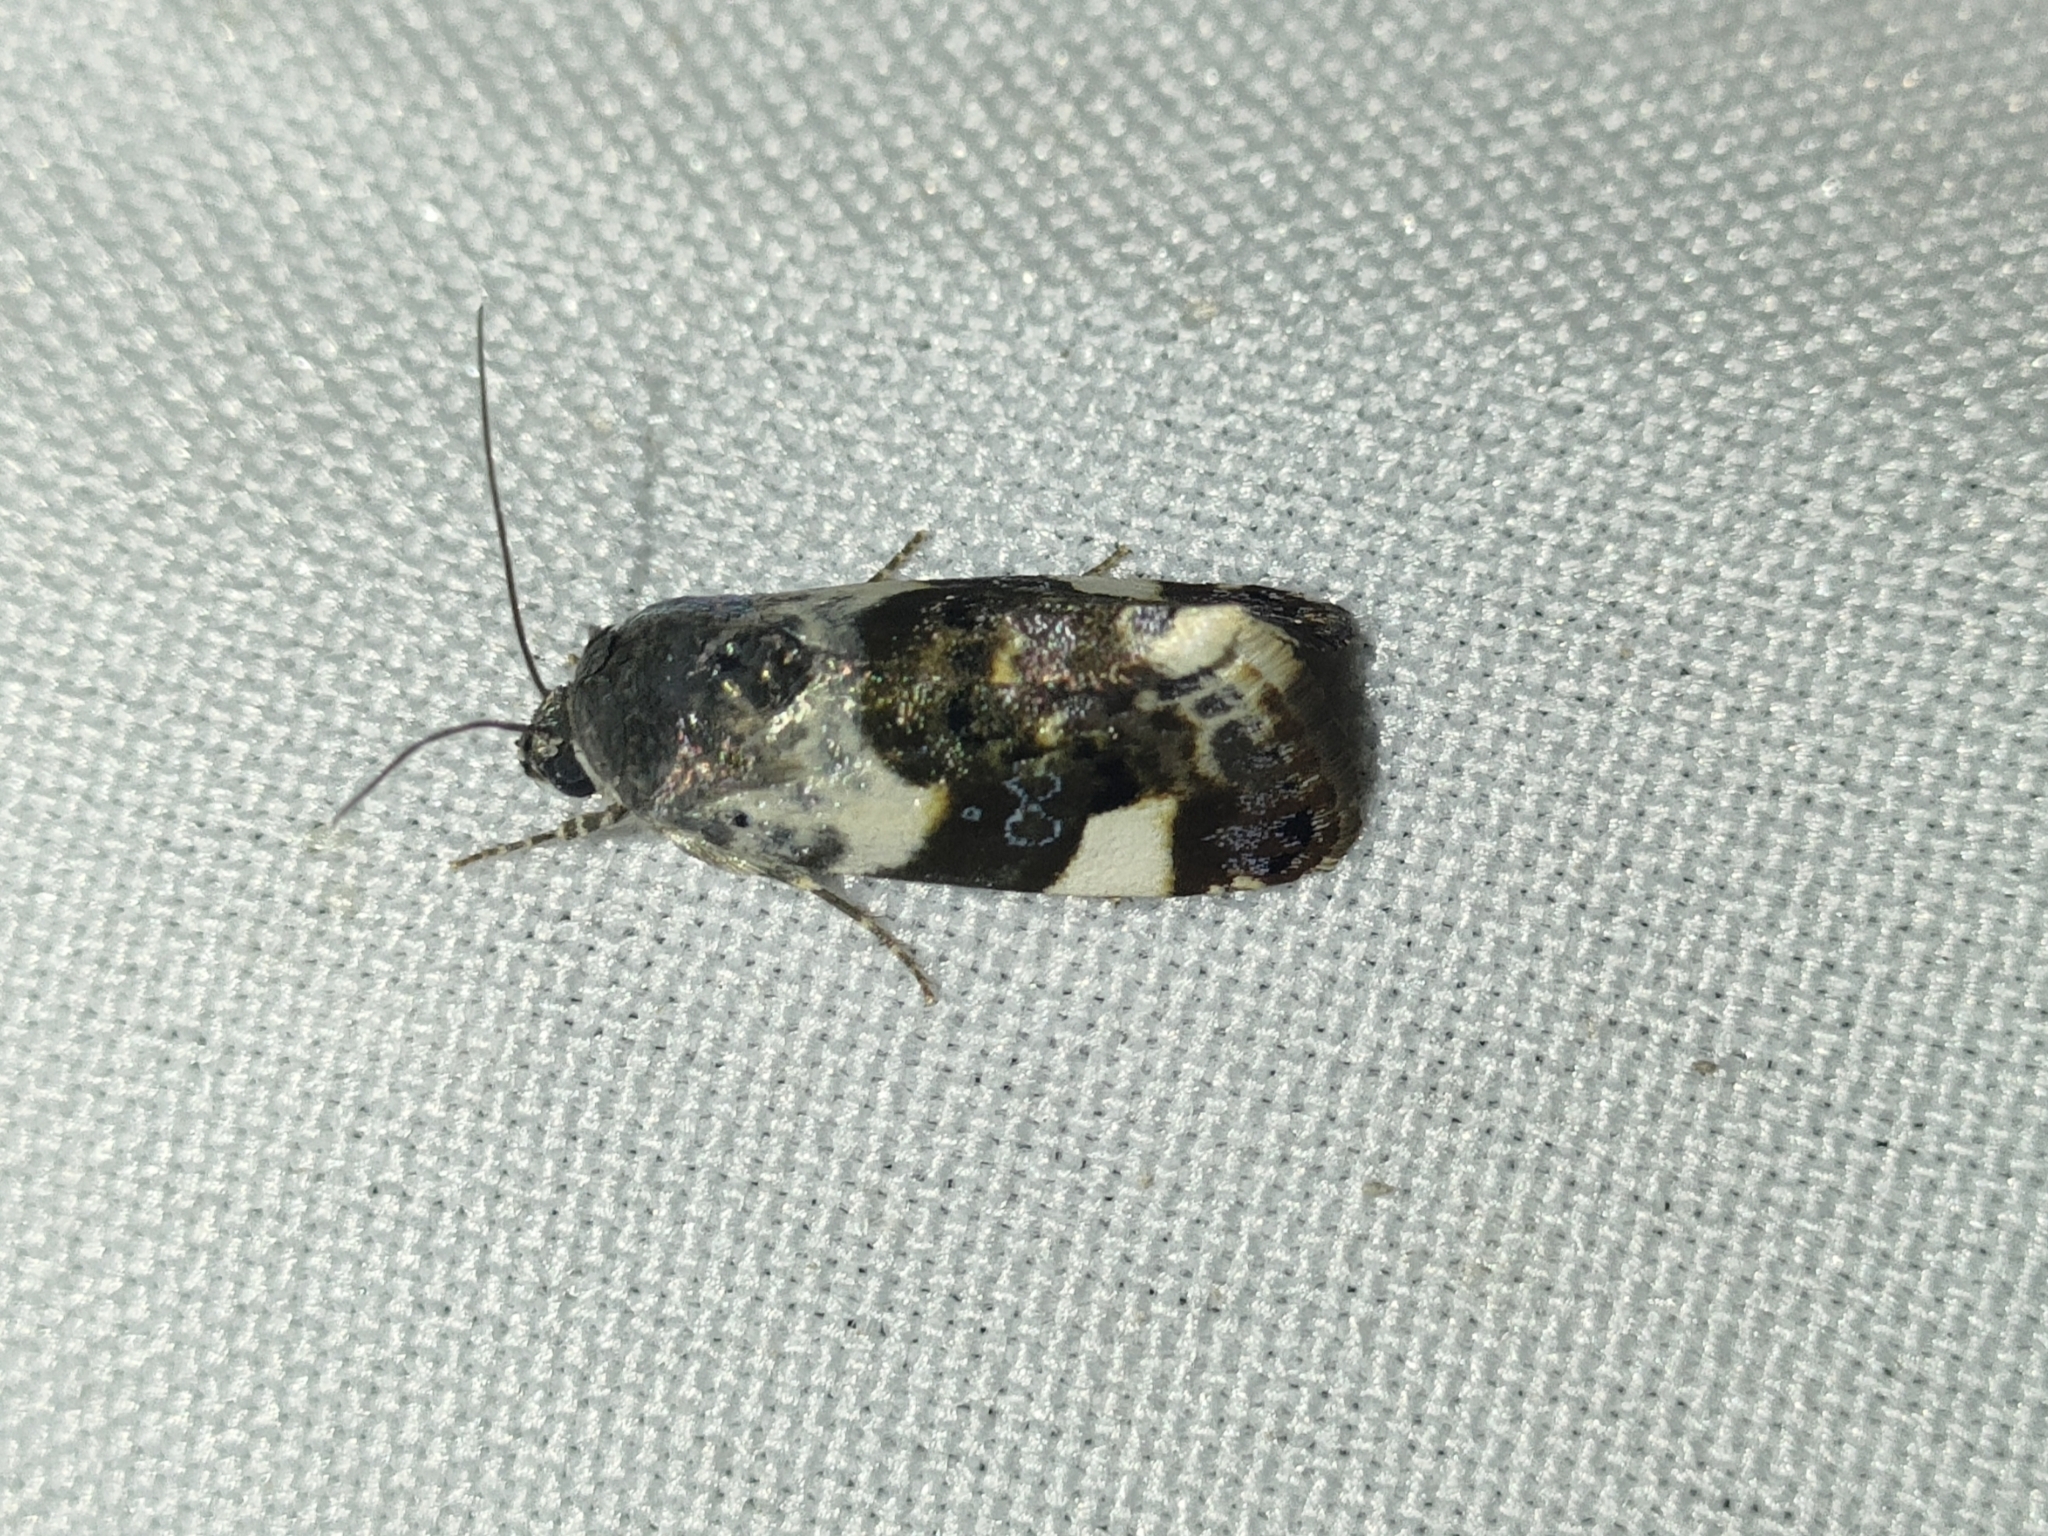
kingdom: Animalia
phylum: Arthropoda
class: Insecta
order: Lepidoptera
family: Noctuidae
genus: Acontia
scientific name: Acontia lucida
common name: Pale shoulder
